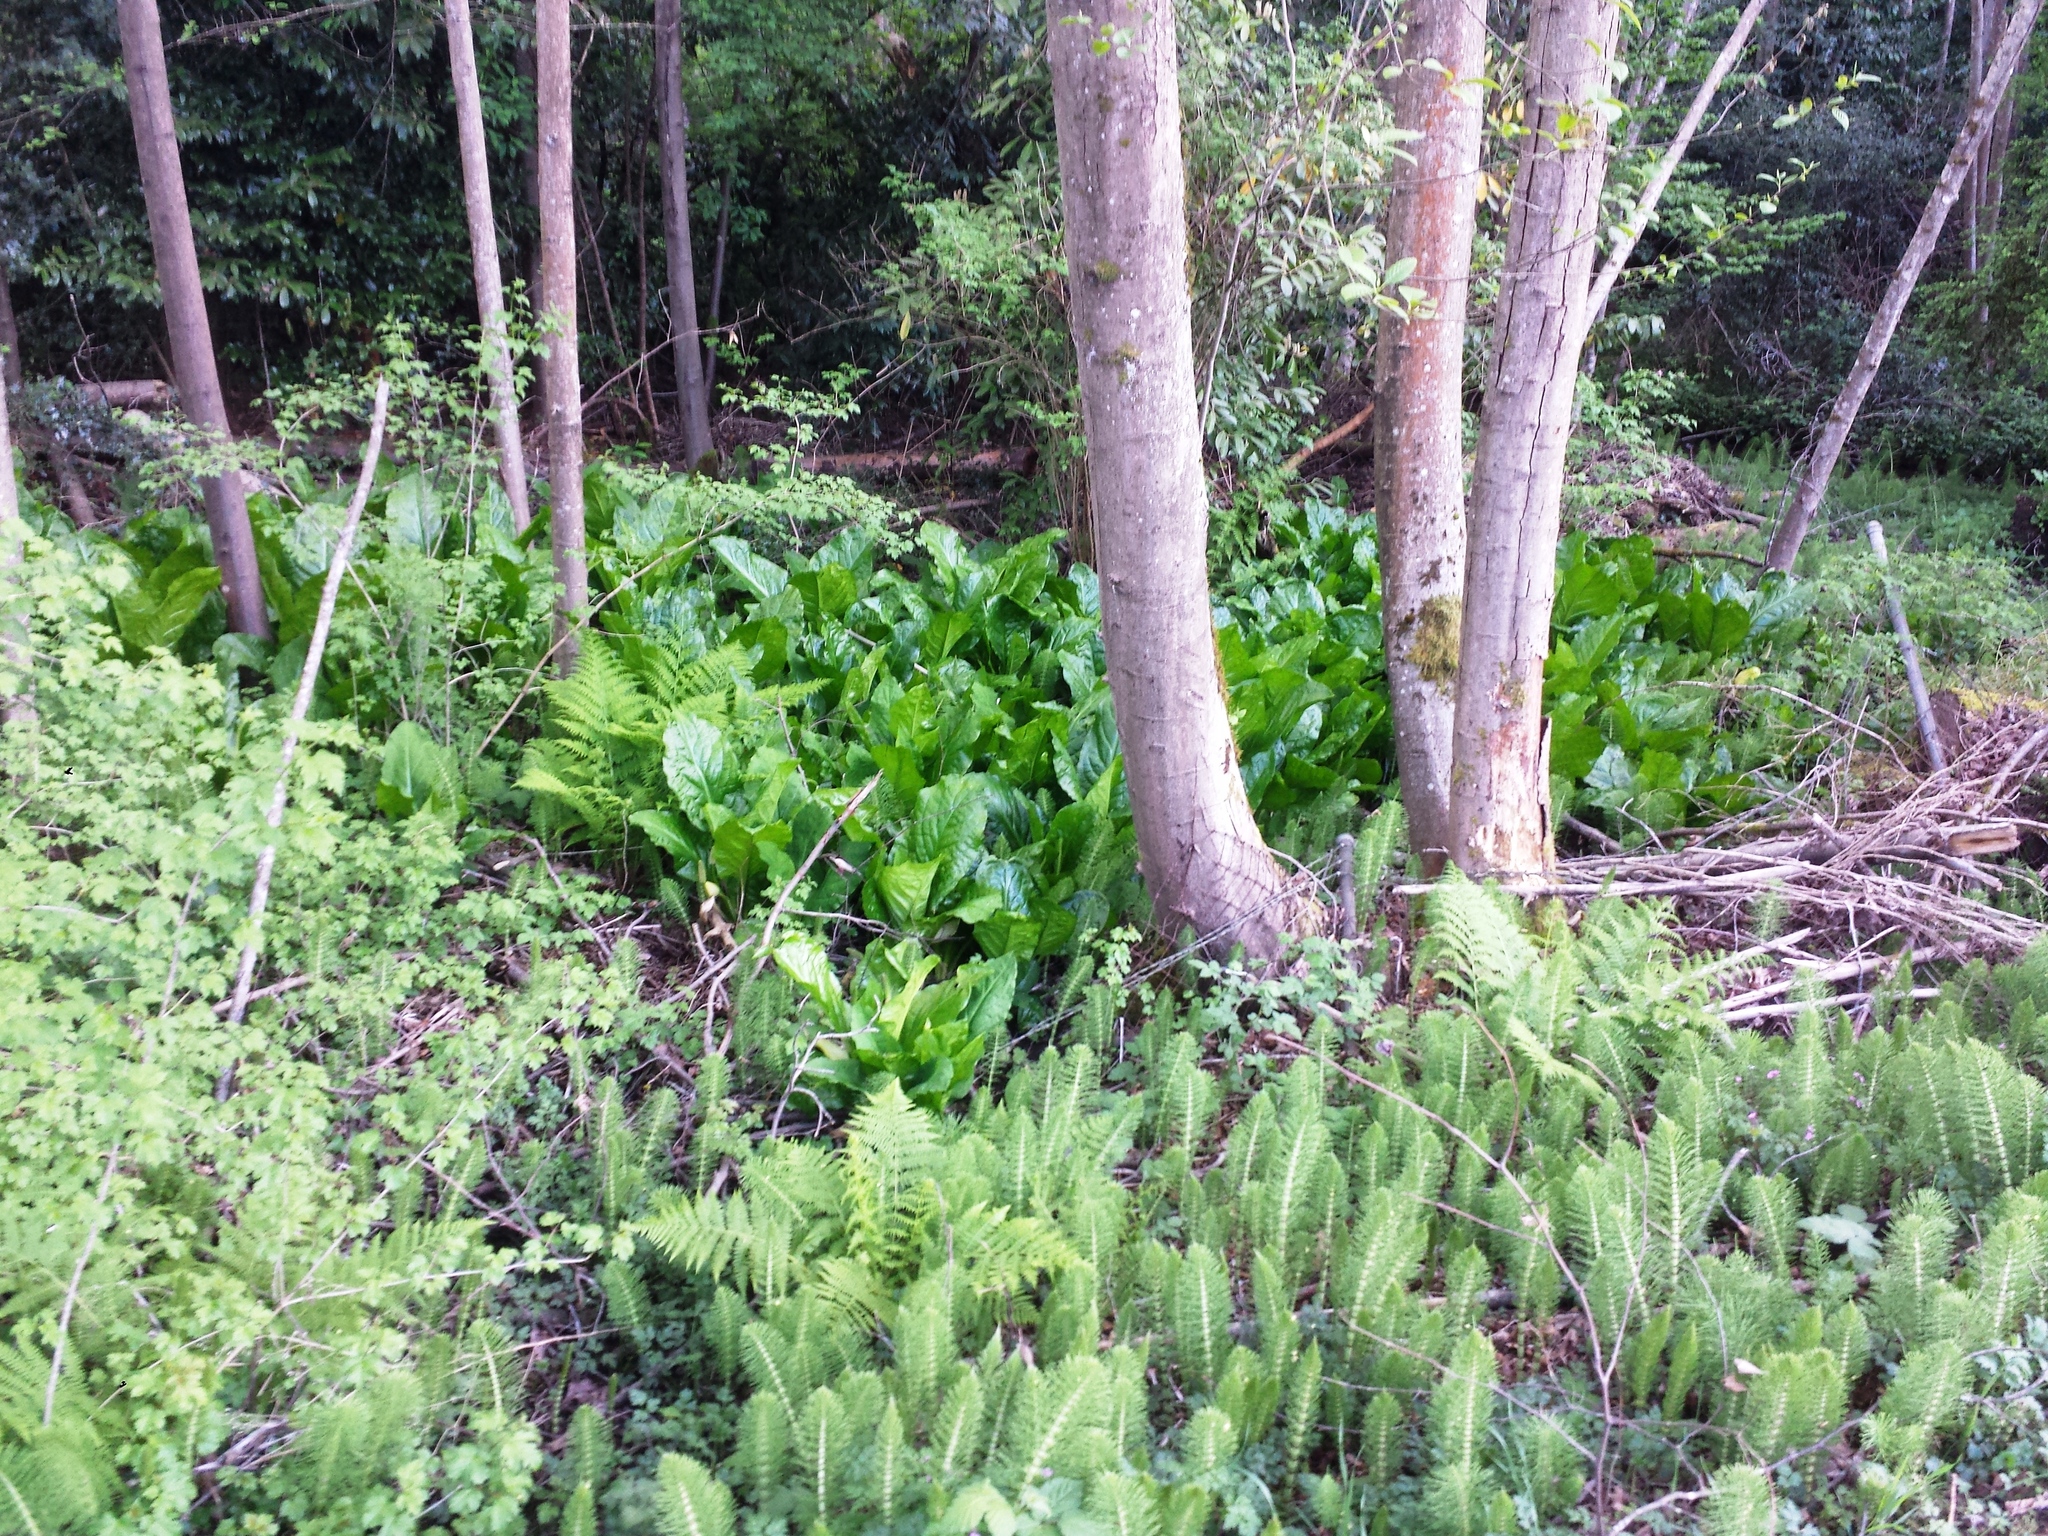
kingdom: Plantae
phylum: Tracheophyta
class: Liliopsida
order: Alismatales
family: Araceae
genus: Lysichiton
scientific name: Lysichiton americanus
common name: American skunk cabbage
